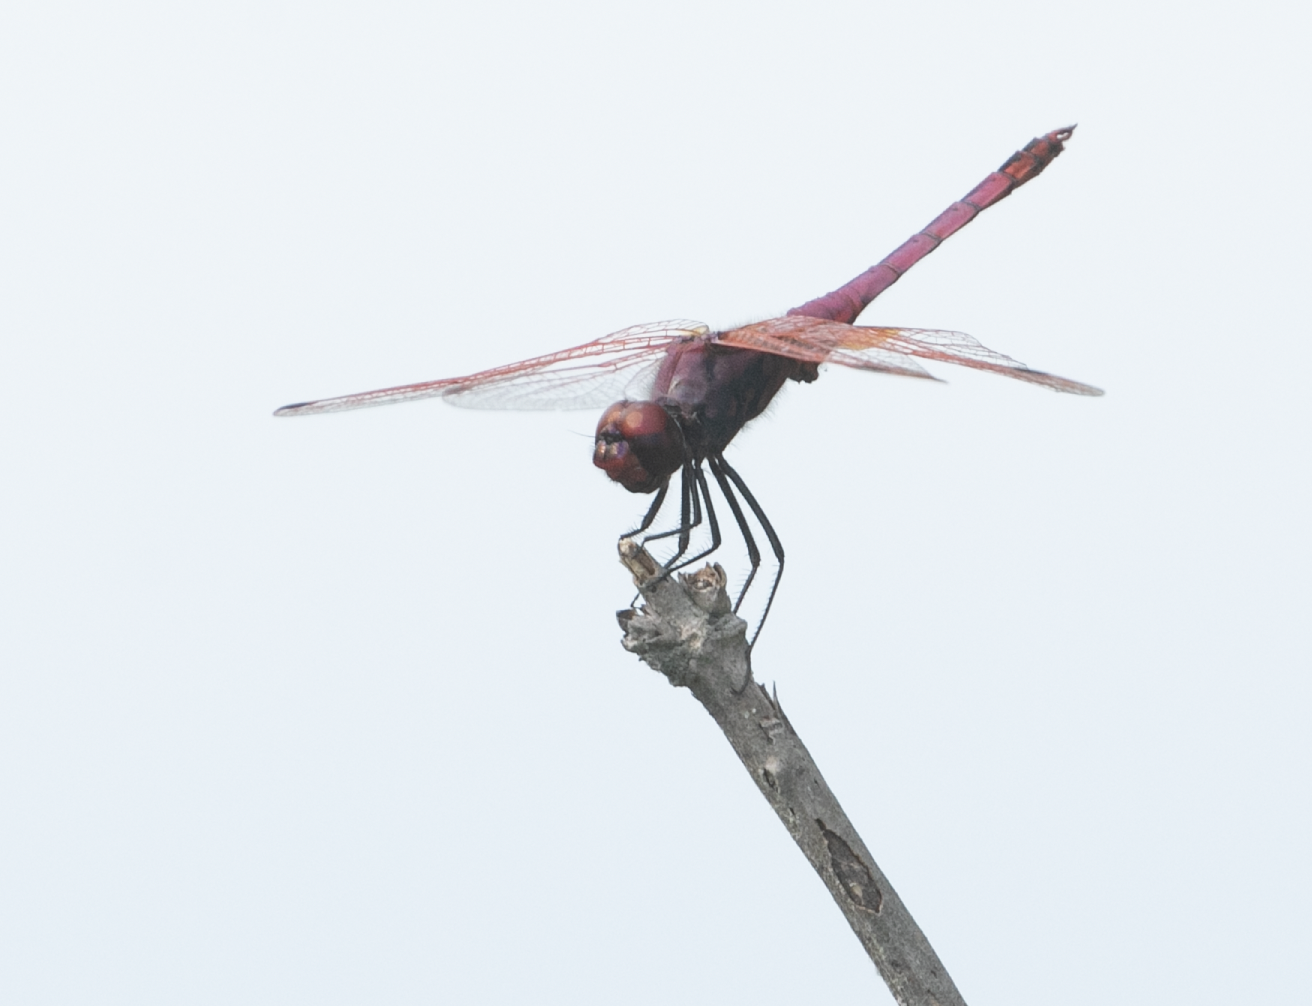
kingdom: Animalia
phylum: Arthropoda
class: Insecta
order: Odonata
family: Libellulidae
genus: Trithemis
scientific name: Trithemis annulata
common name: Violet dropwing
